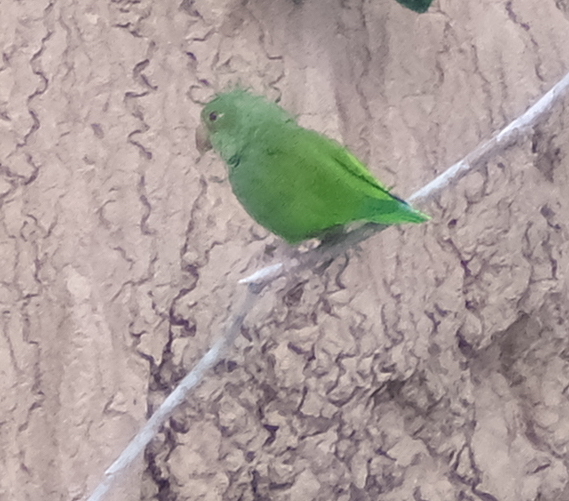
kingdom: Animalia
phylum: Chordata
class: Aves
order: Psittaciformes
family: Psittacidae
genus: Brotogeris
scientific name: Brotogeris cyanoptera
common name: Cobalt-winged parakeet
